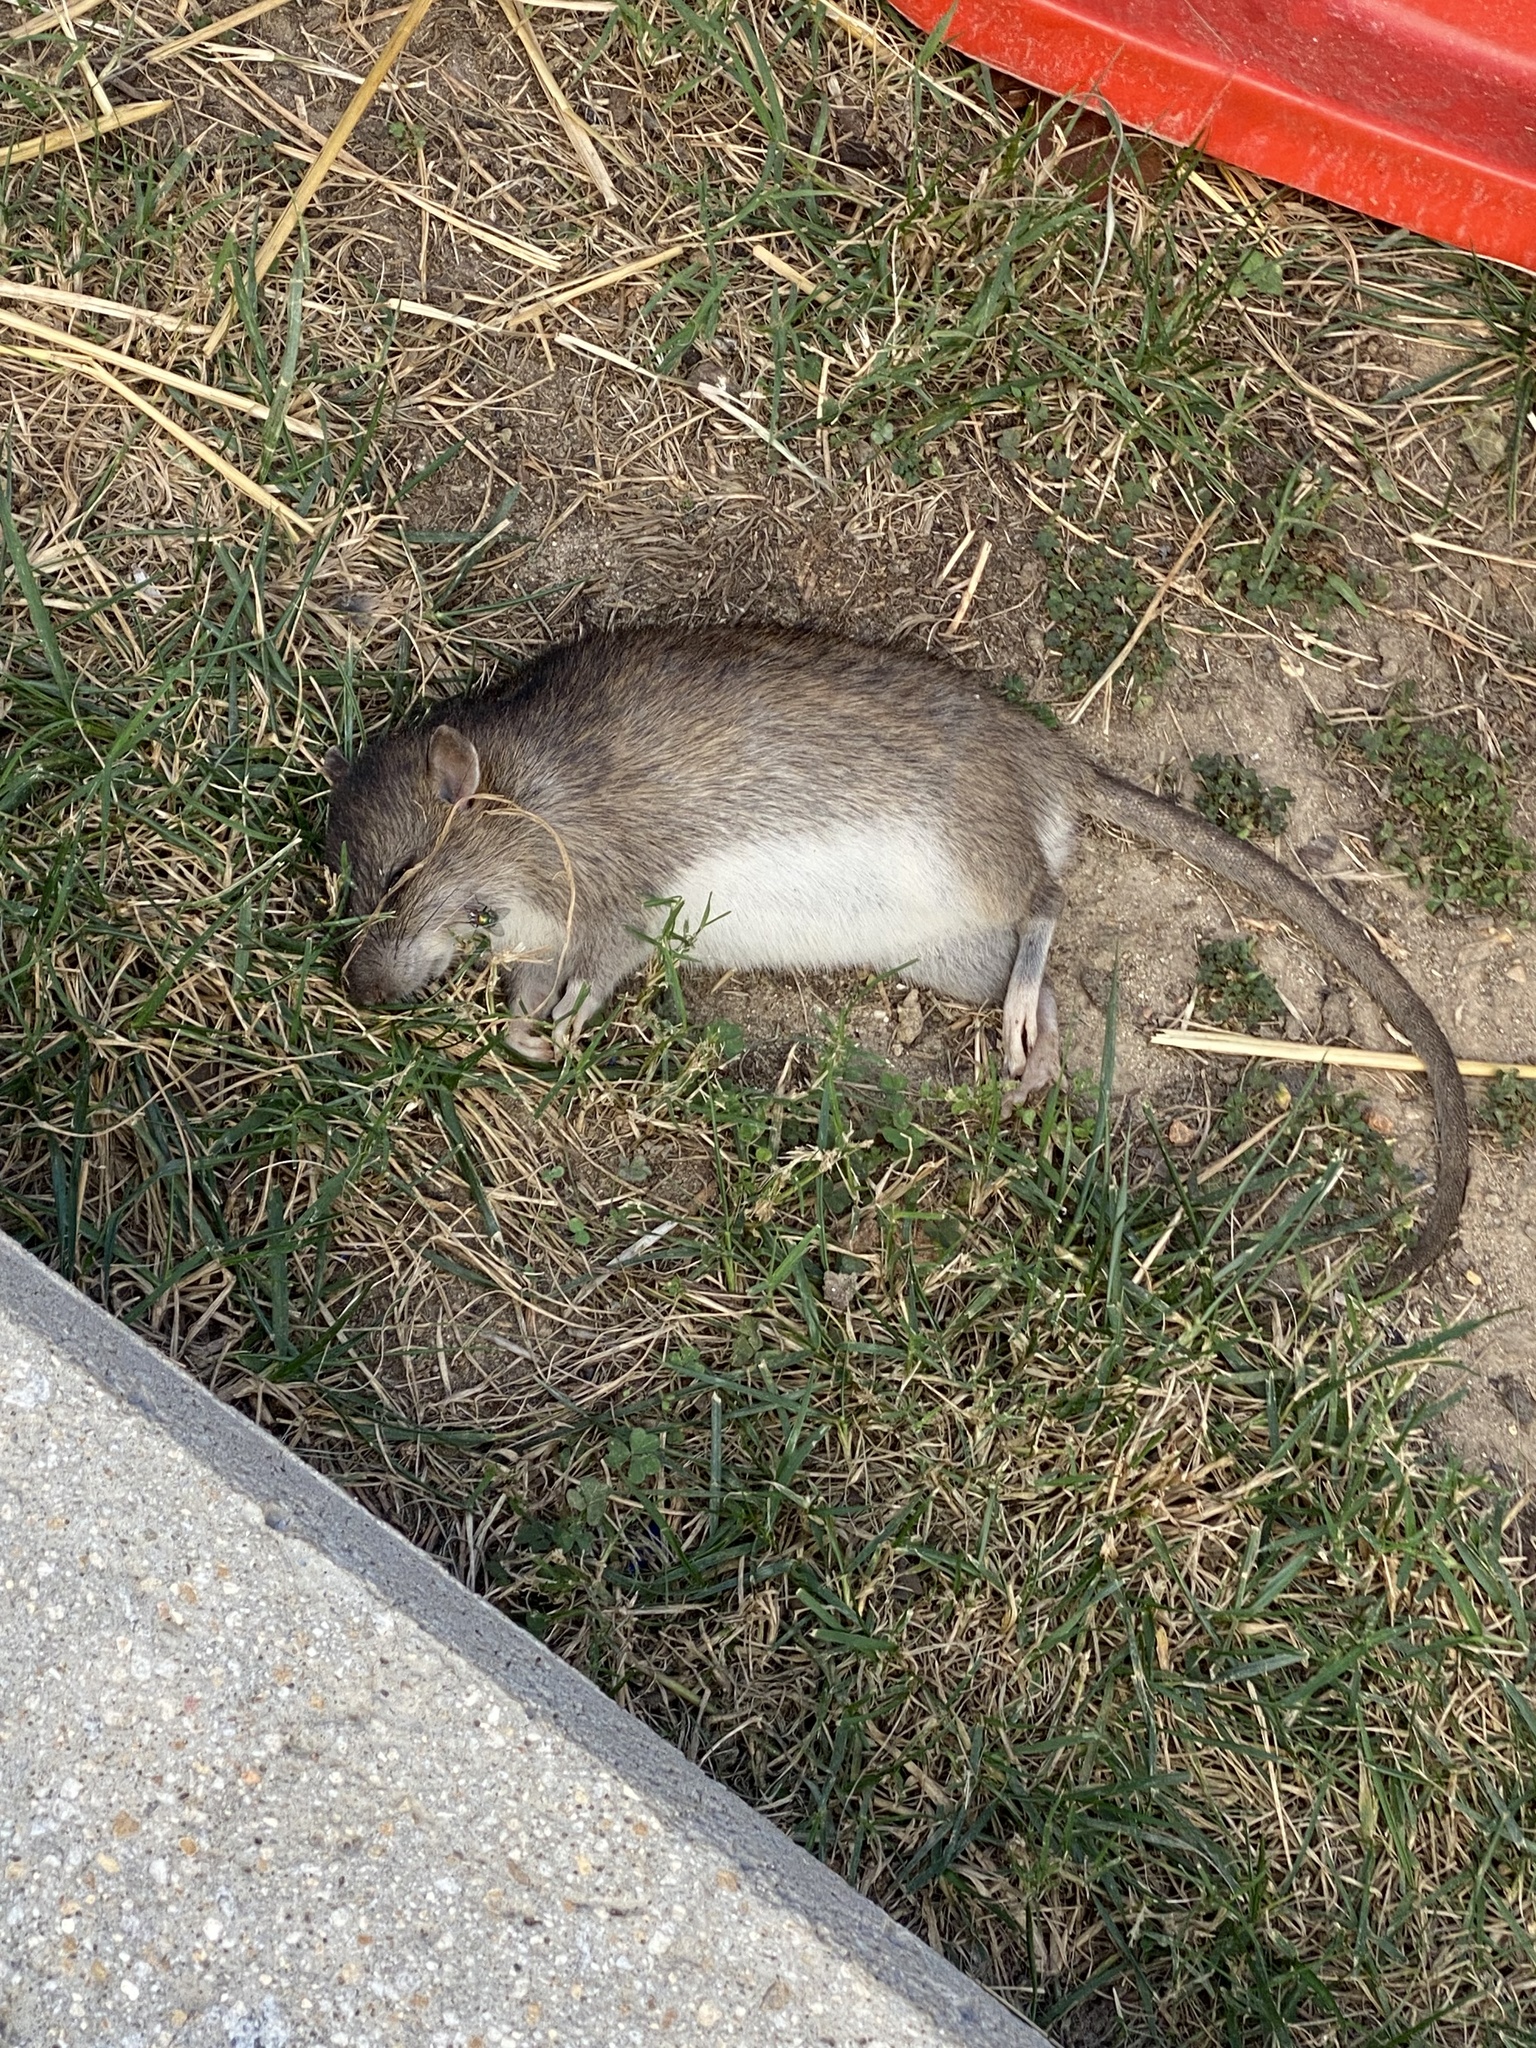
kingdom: Animalia
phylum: Chordata
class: Mammalia
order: Rodentia
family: Muridae
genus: Rattus
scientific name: Rattus norvegicus
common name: Brown rat
